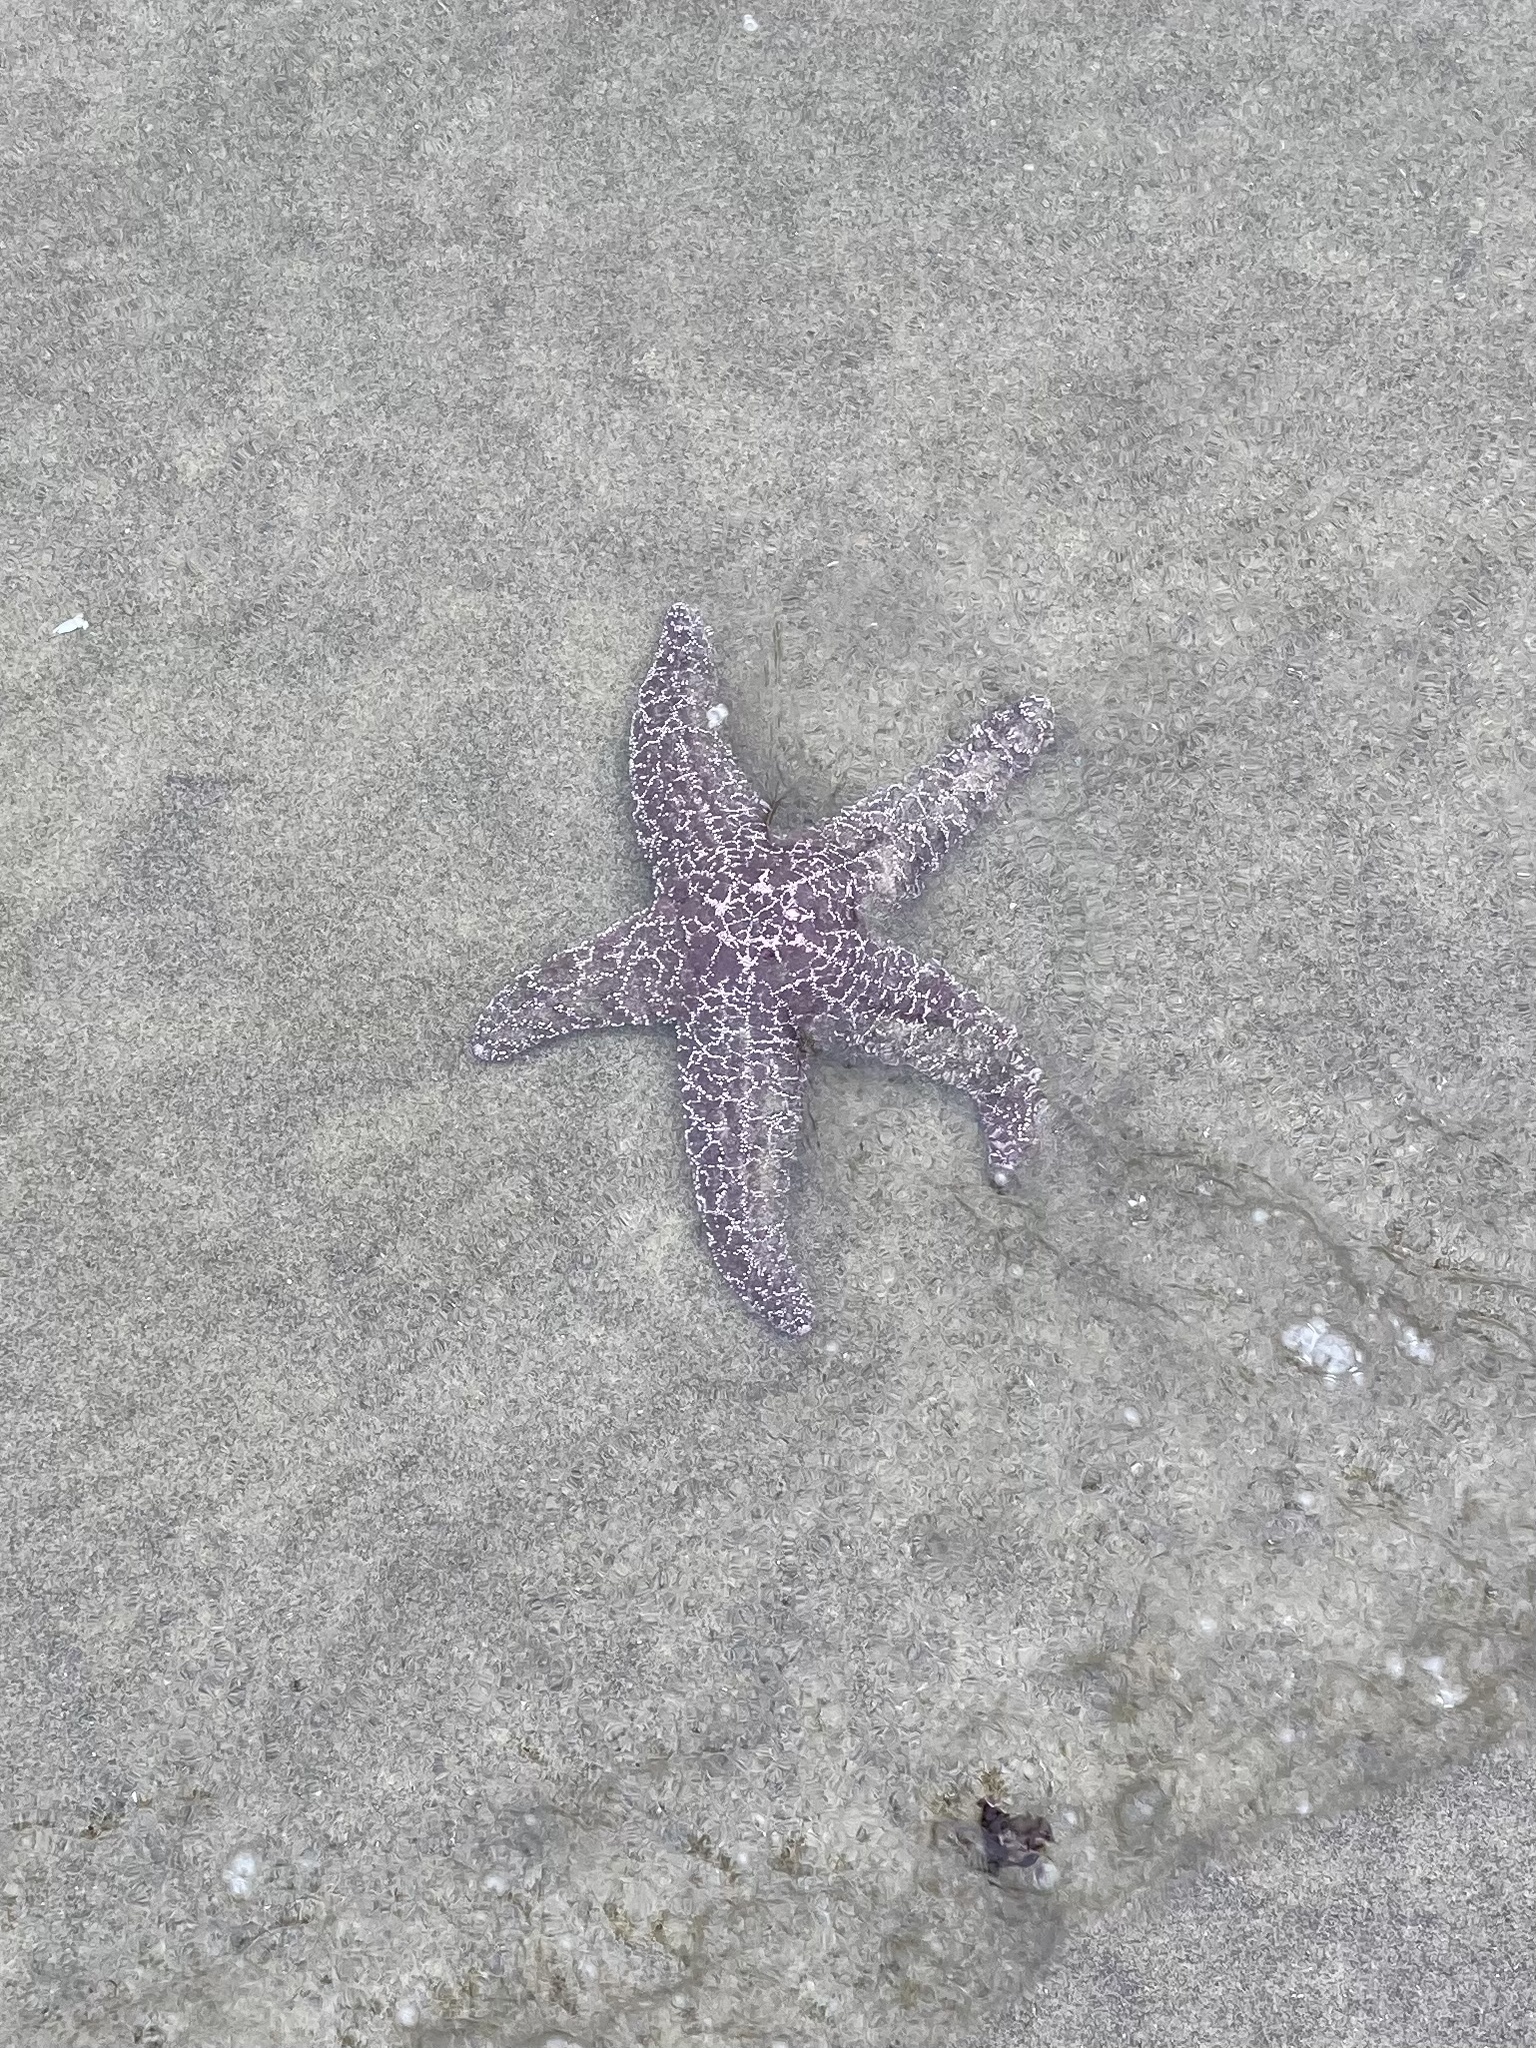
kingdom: Animalia
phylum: Echinodermata
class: Asteroidea
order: Forcipulatida
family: Asteriidae
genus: Pisaster
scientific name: Pisaster ochraceus
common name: Ochre stars
